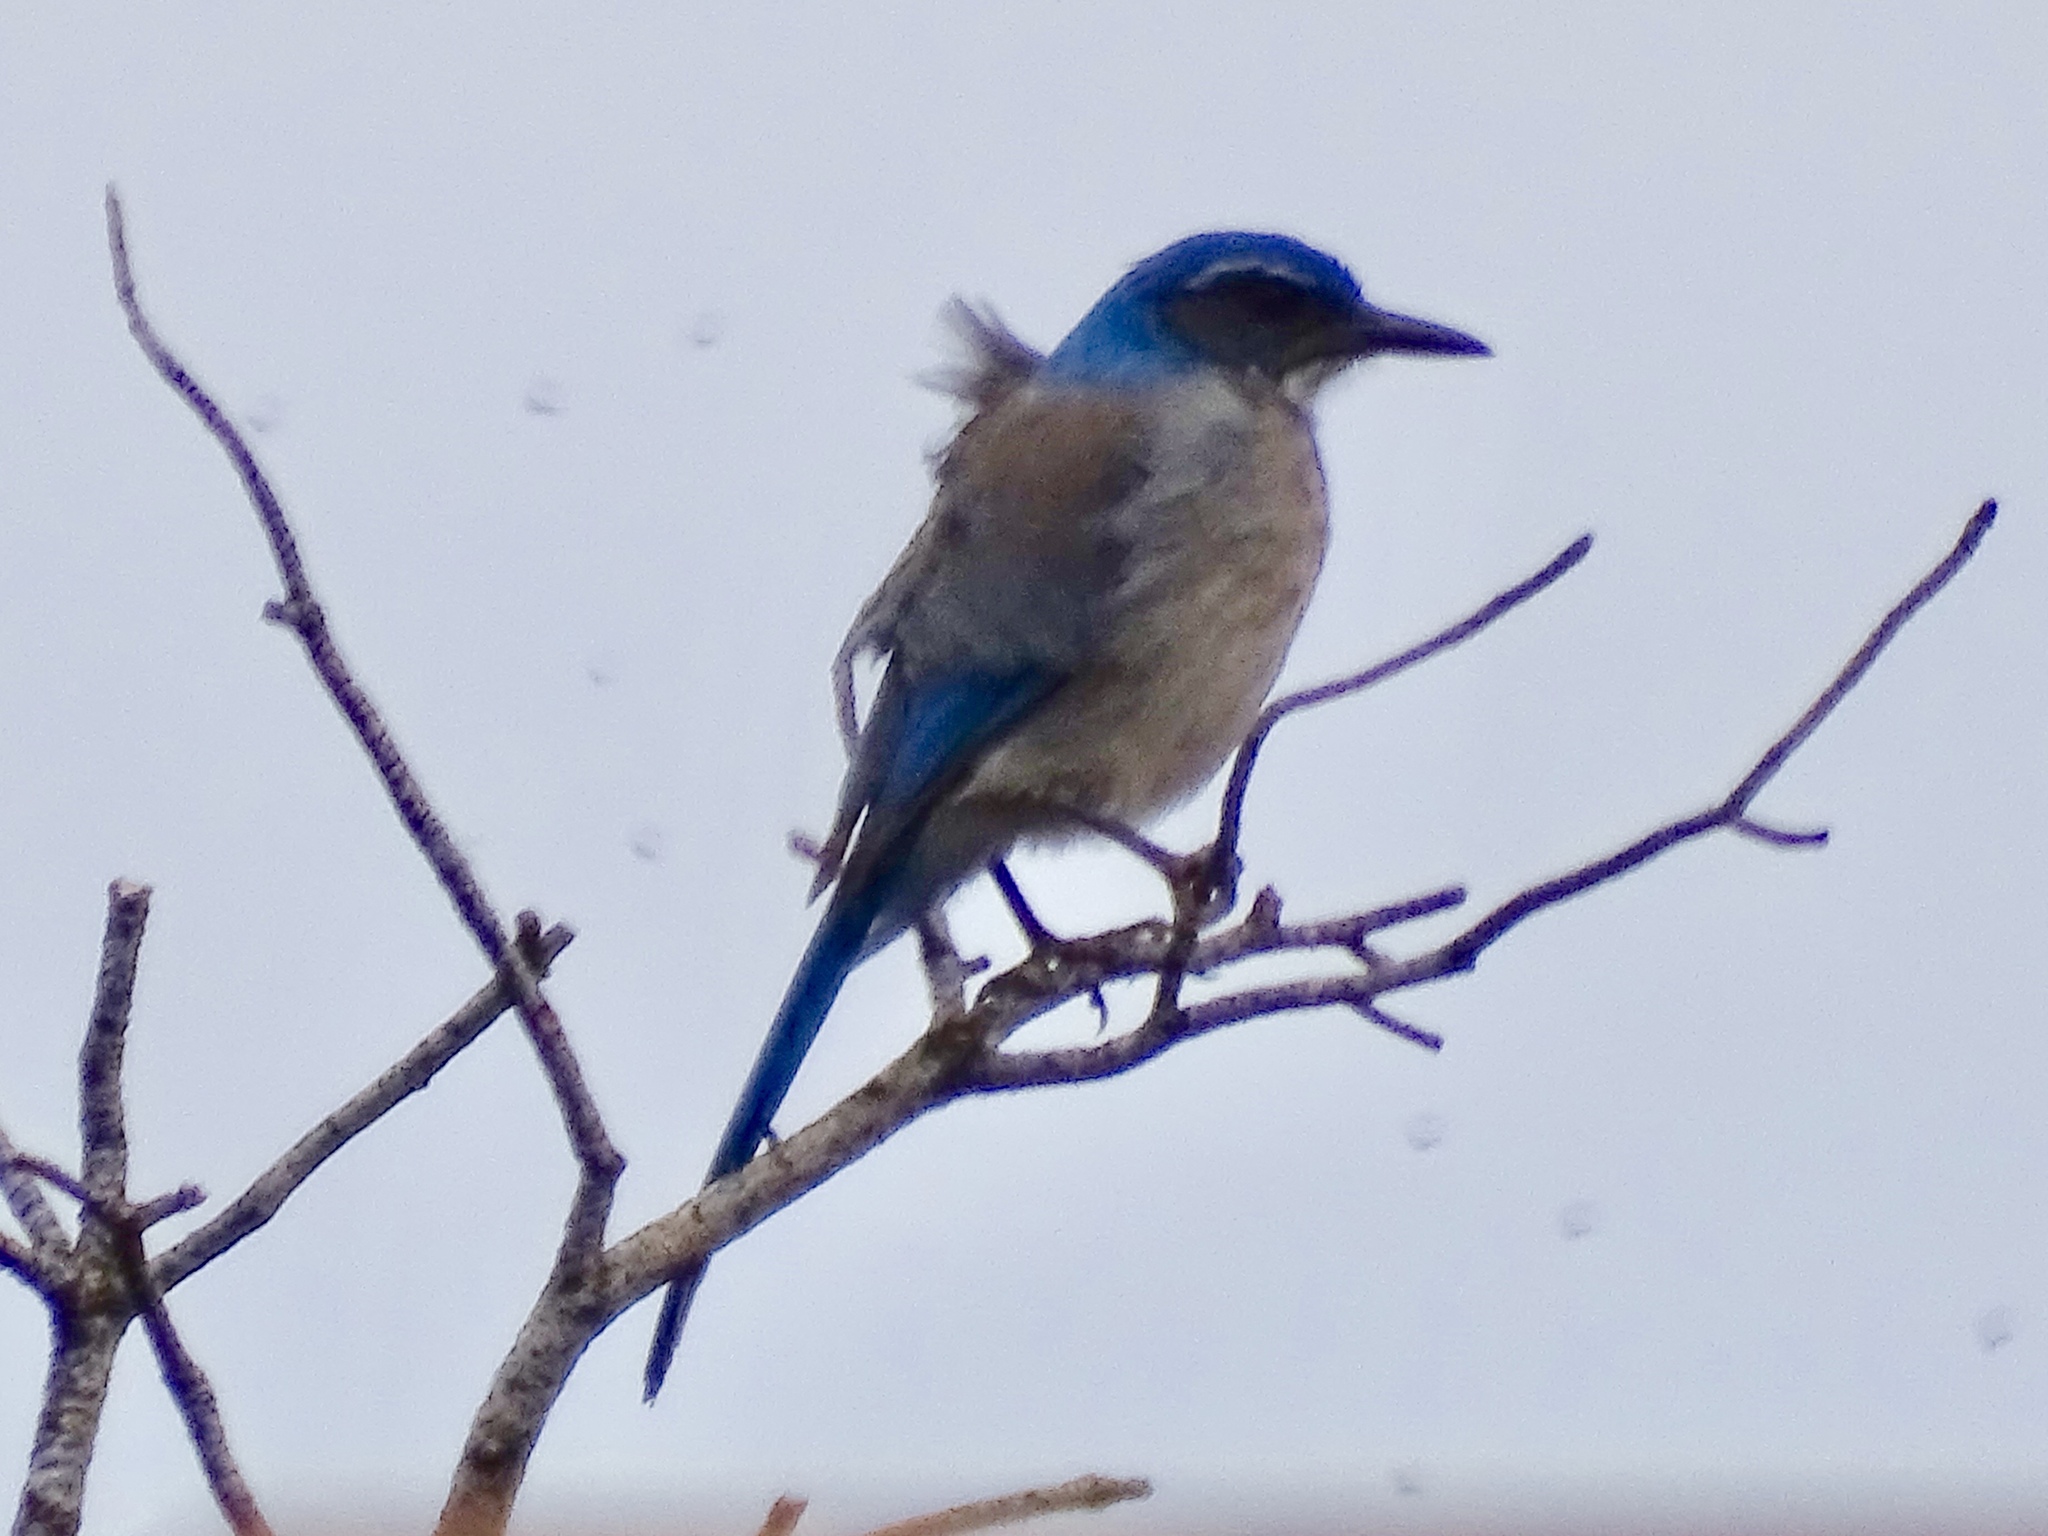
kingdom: Animalia
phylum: Chordata
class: Aves
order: Passeriformes
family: Corvidae
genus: Aphelocoma
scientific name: Aphelocoma woodhouseii
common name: Woodhouse's scrub-jay
